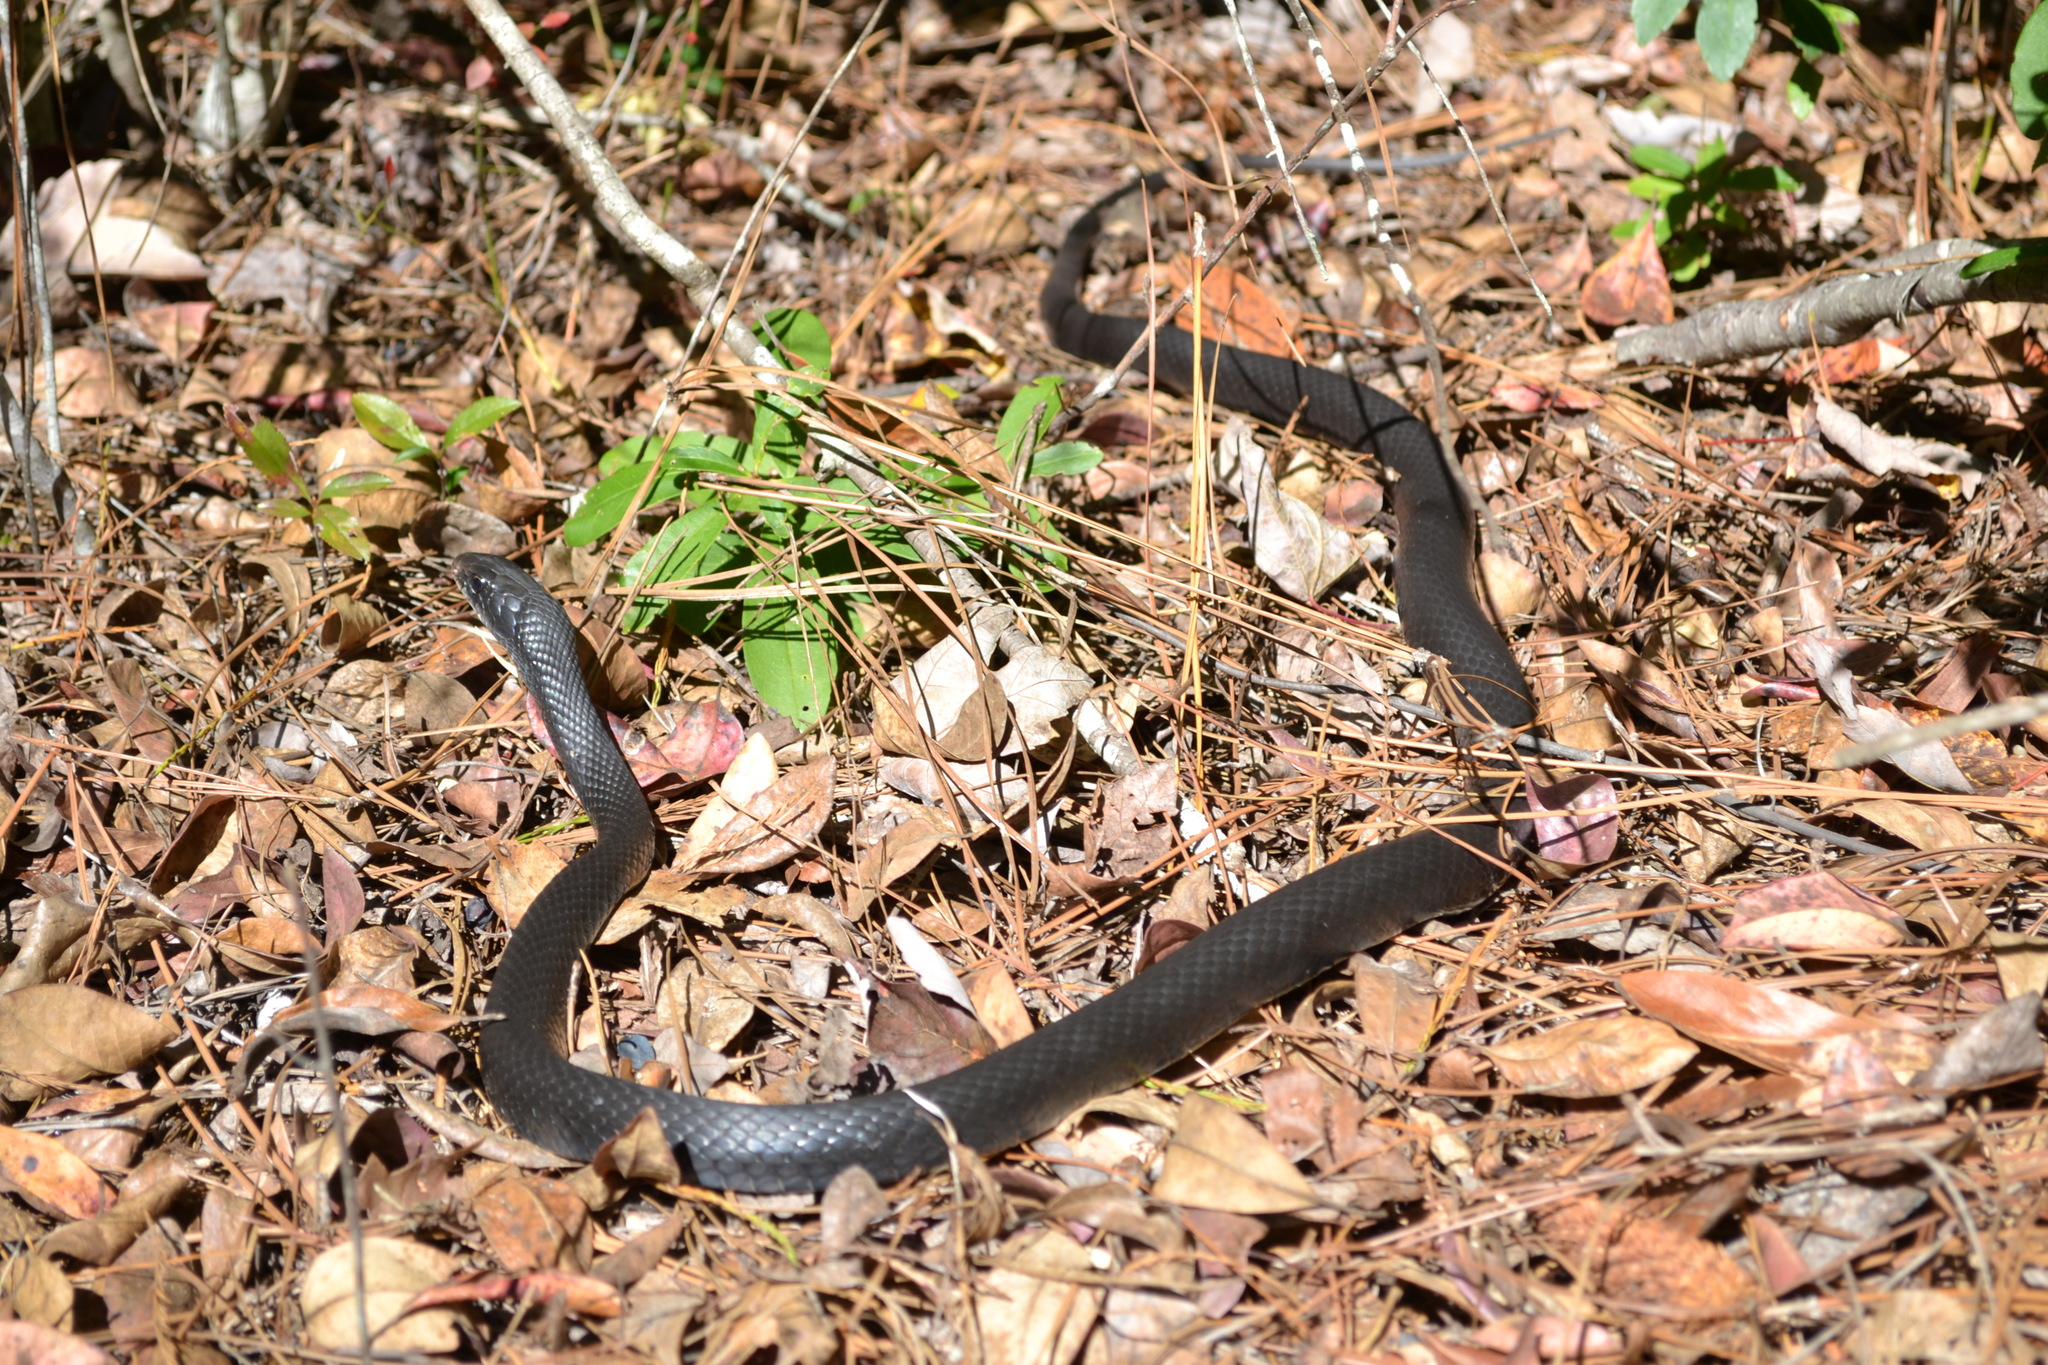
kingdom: Animalia
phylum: Chordata
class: Squamata
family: Colubridae
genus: Coluber
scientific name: Coluber constrictor
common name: Eastern racer
